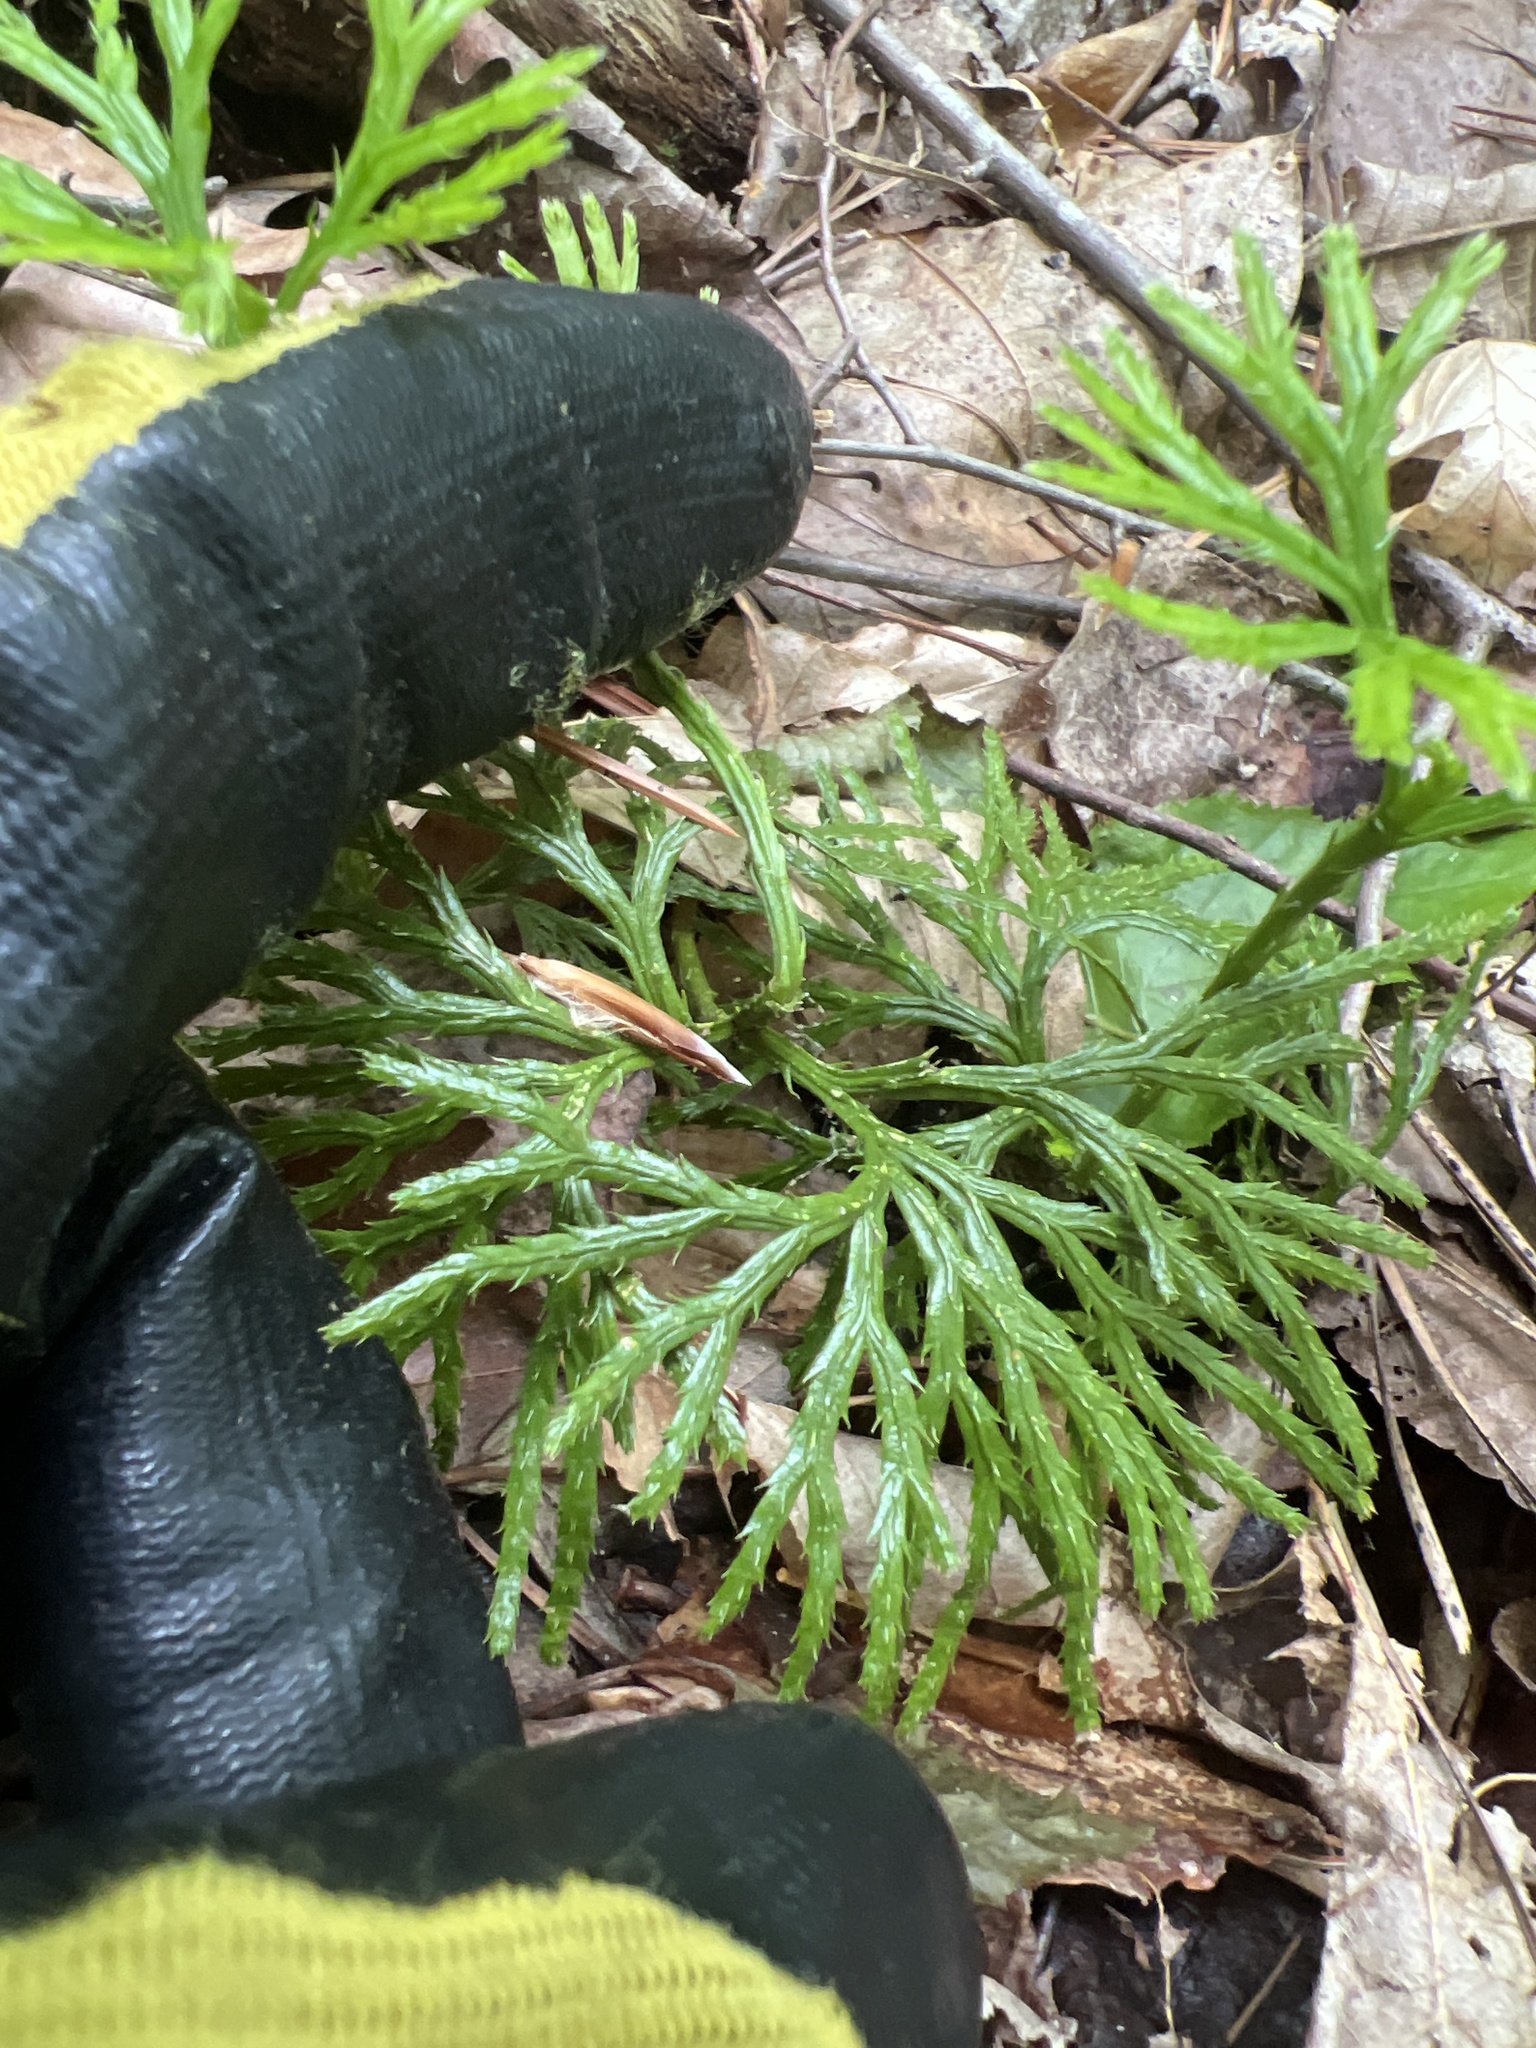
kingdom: Plantae
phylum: Tracheophyta
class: Lycopodiopsida
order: Lycopodiales
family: Lycopodiaceae
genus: Diphasiastrum
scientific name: Diphasiastrum digitatum
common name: Southern running-pine
